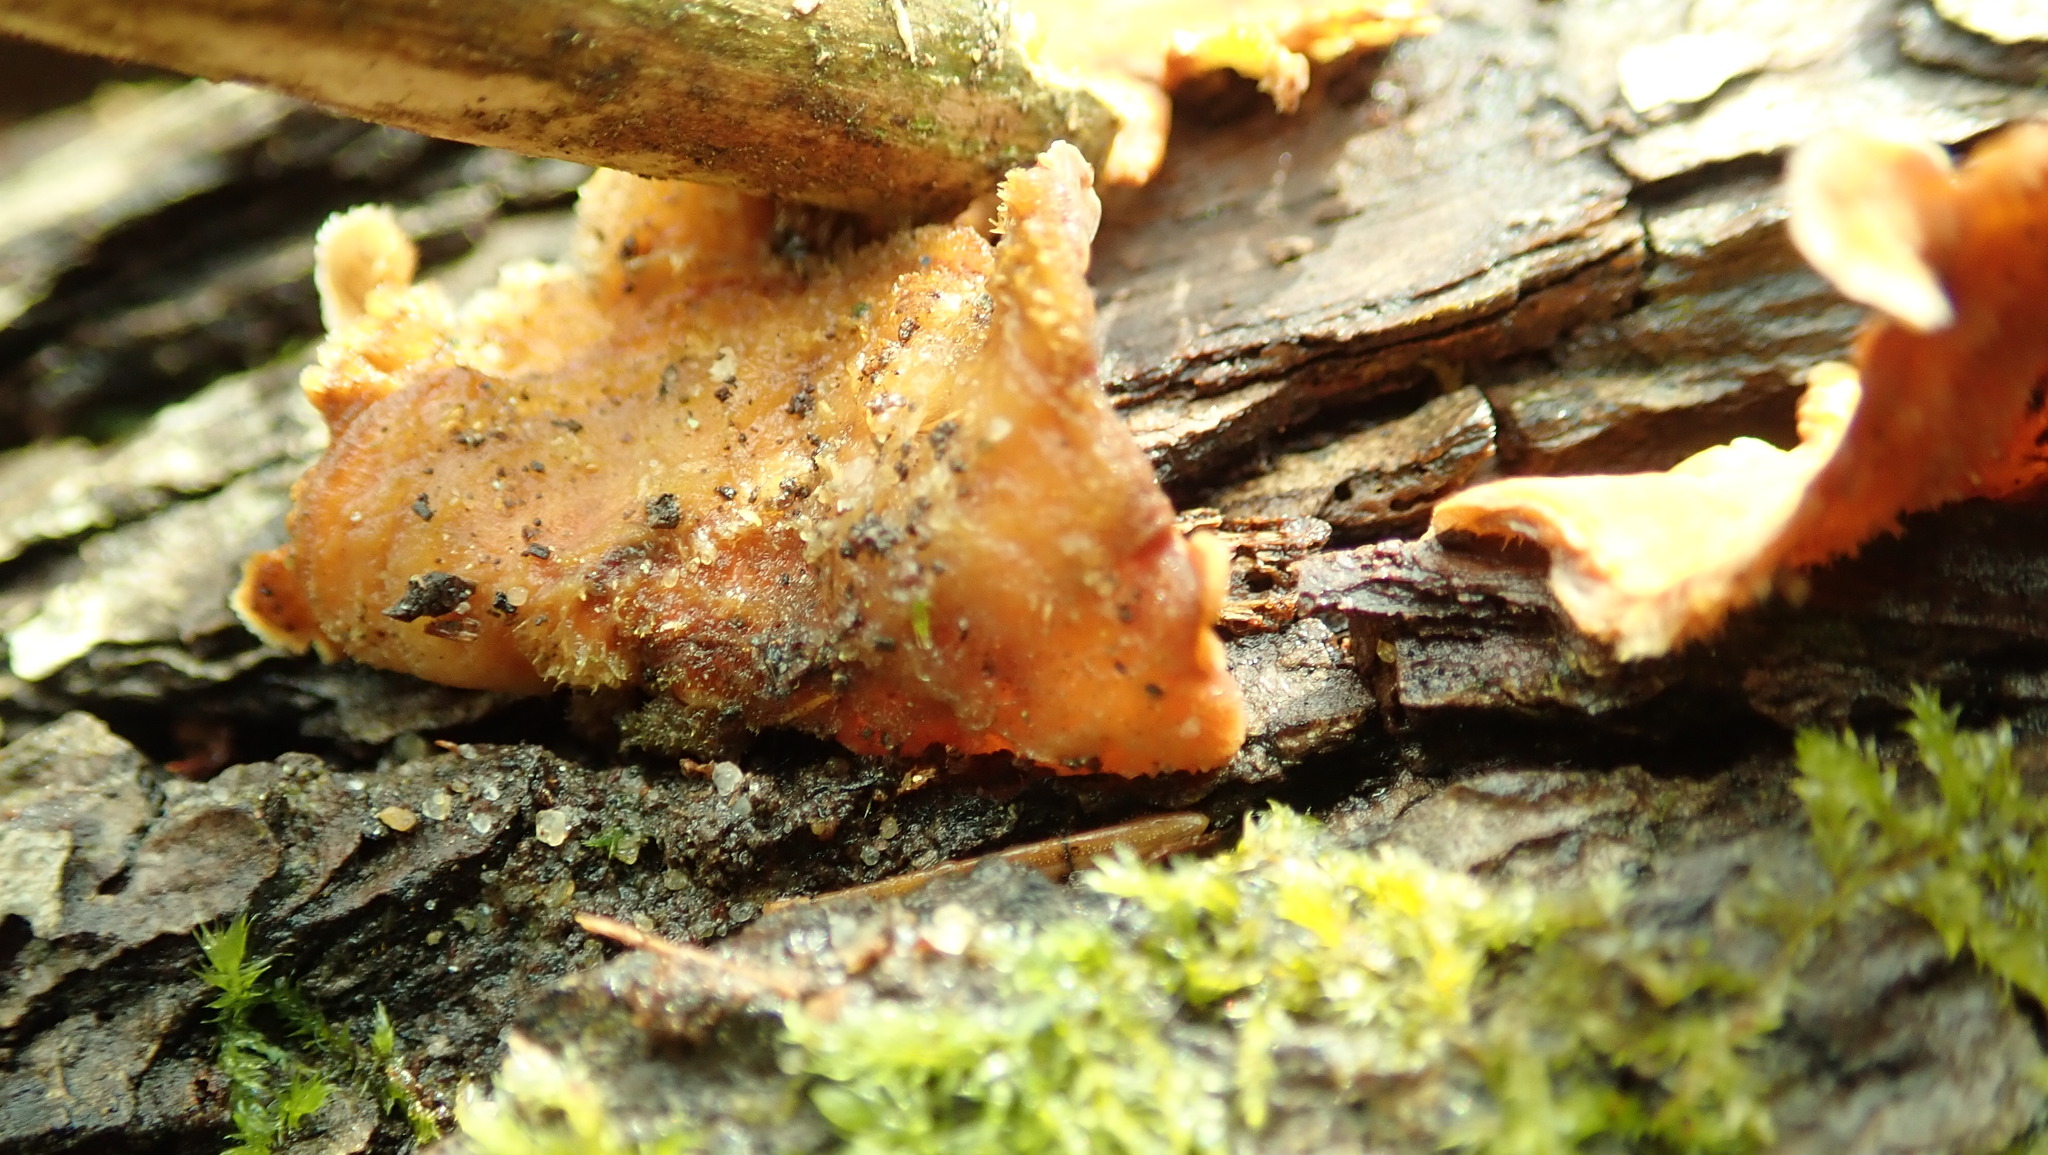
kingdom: Fungi
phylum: Basidiomycota
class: Agaricomycetes
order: Russulales
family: Stereaceae
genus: Stereum
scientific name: Stereum hirsutum
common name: Hairy curtain crust
